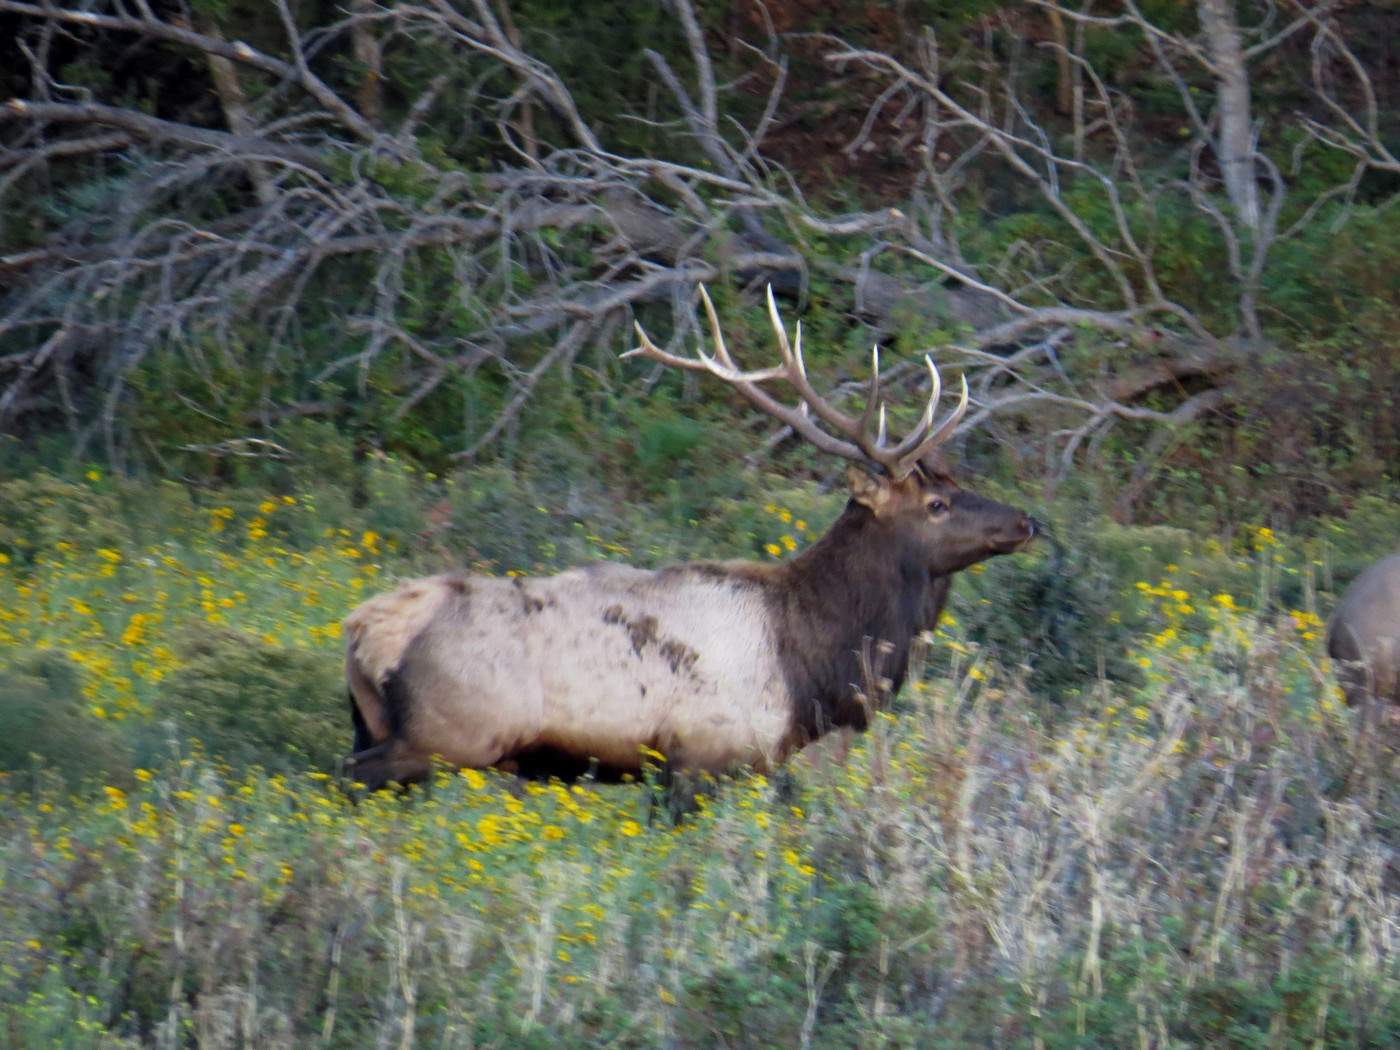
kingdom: Animalia
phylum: Chordata
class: Mammalia
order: Artiodactyla
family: Cervidae
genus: Cervus
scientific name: Cervus elaphus
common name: Red deer
